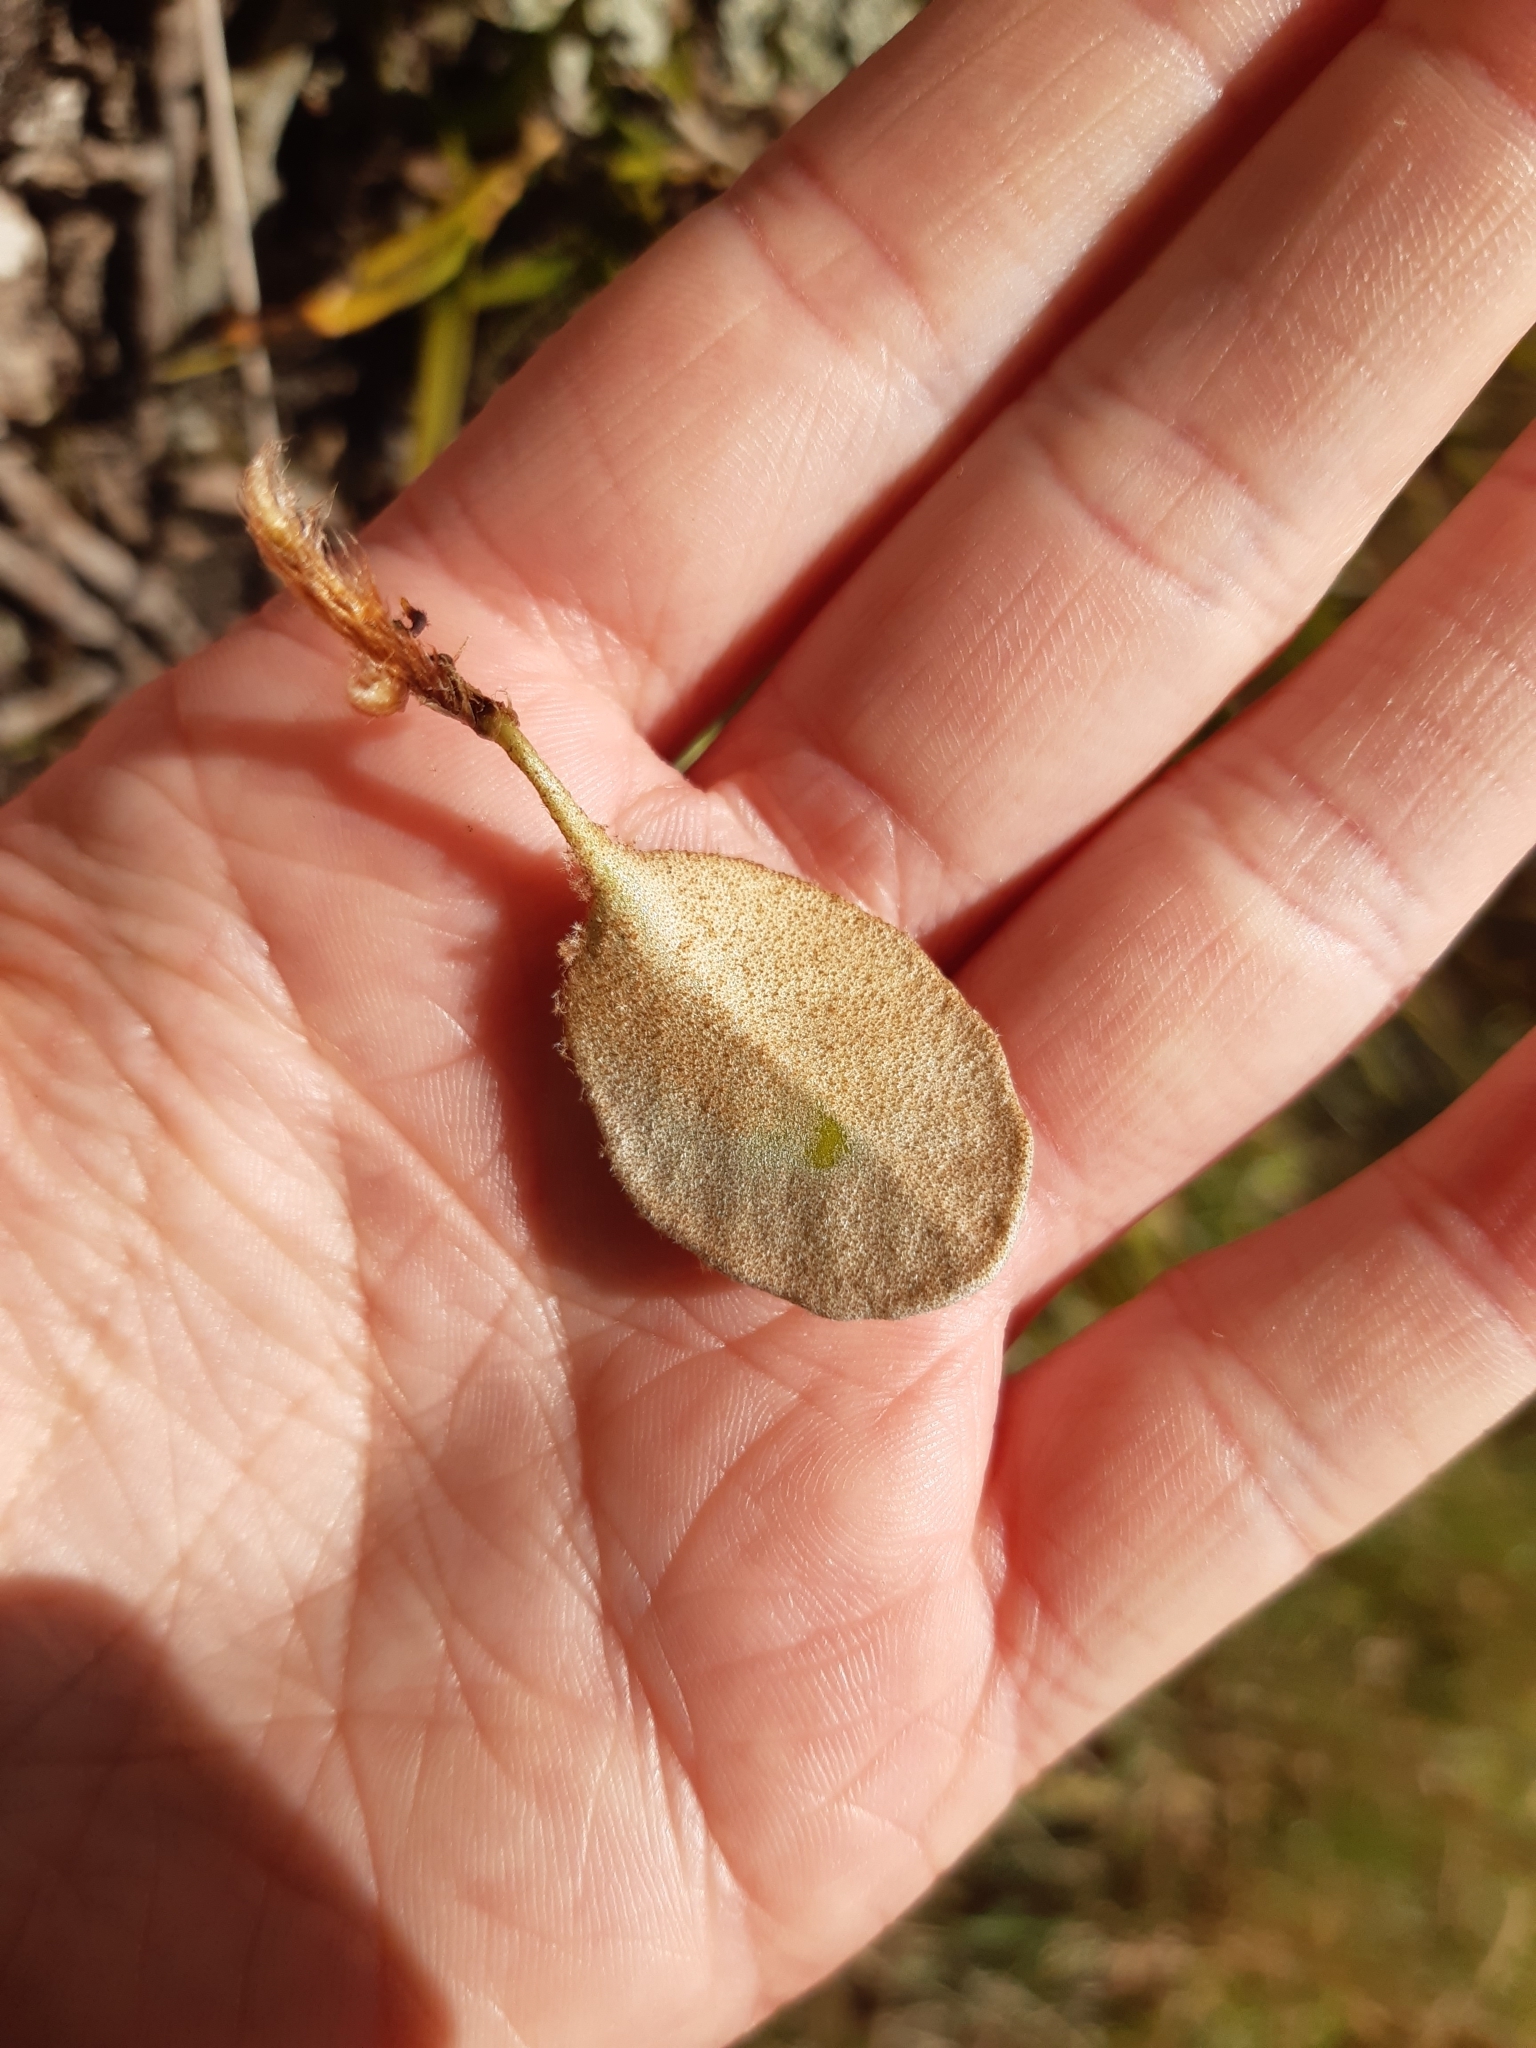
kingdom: Plantae
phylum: Tracheophyta
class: Polypodiopsida
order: Polypodiales
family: Polypodiaceae
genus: Pyrrosia
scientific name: Pyrrosia eleagnifolia
